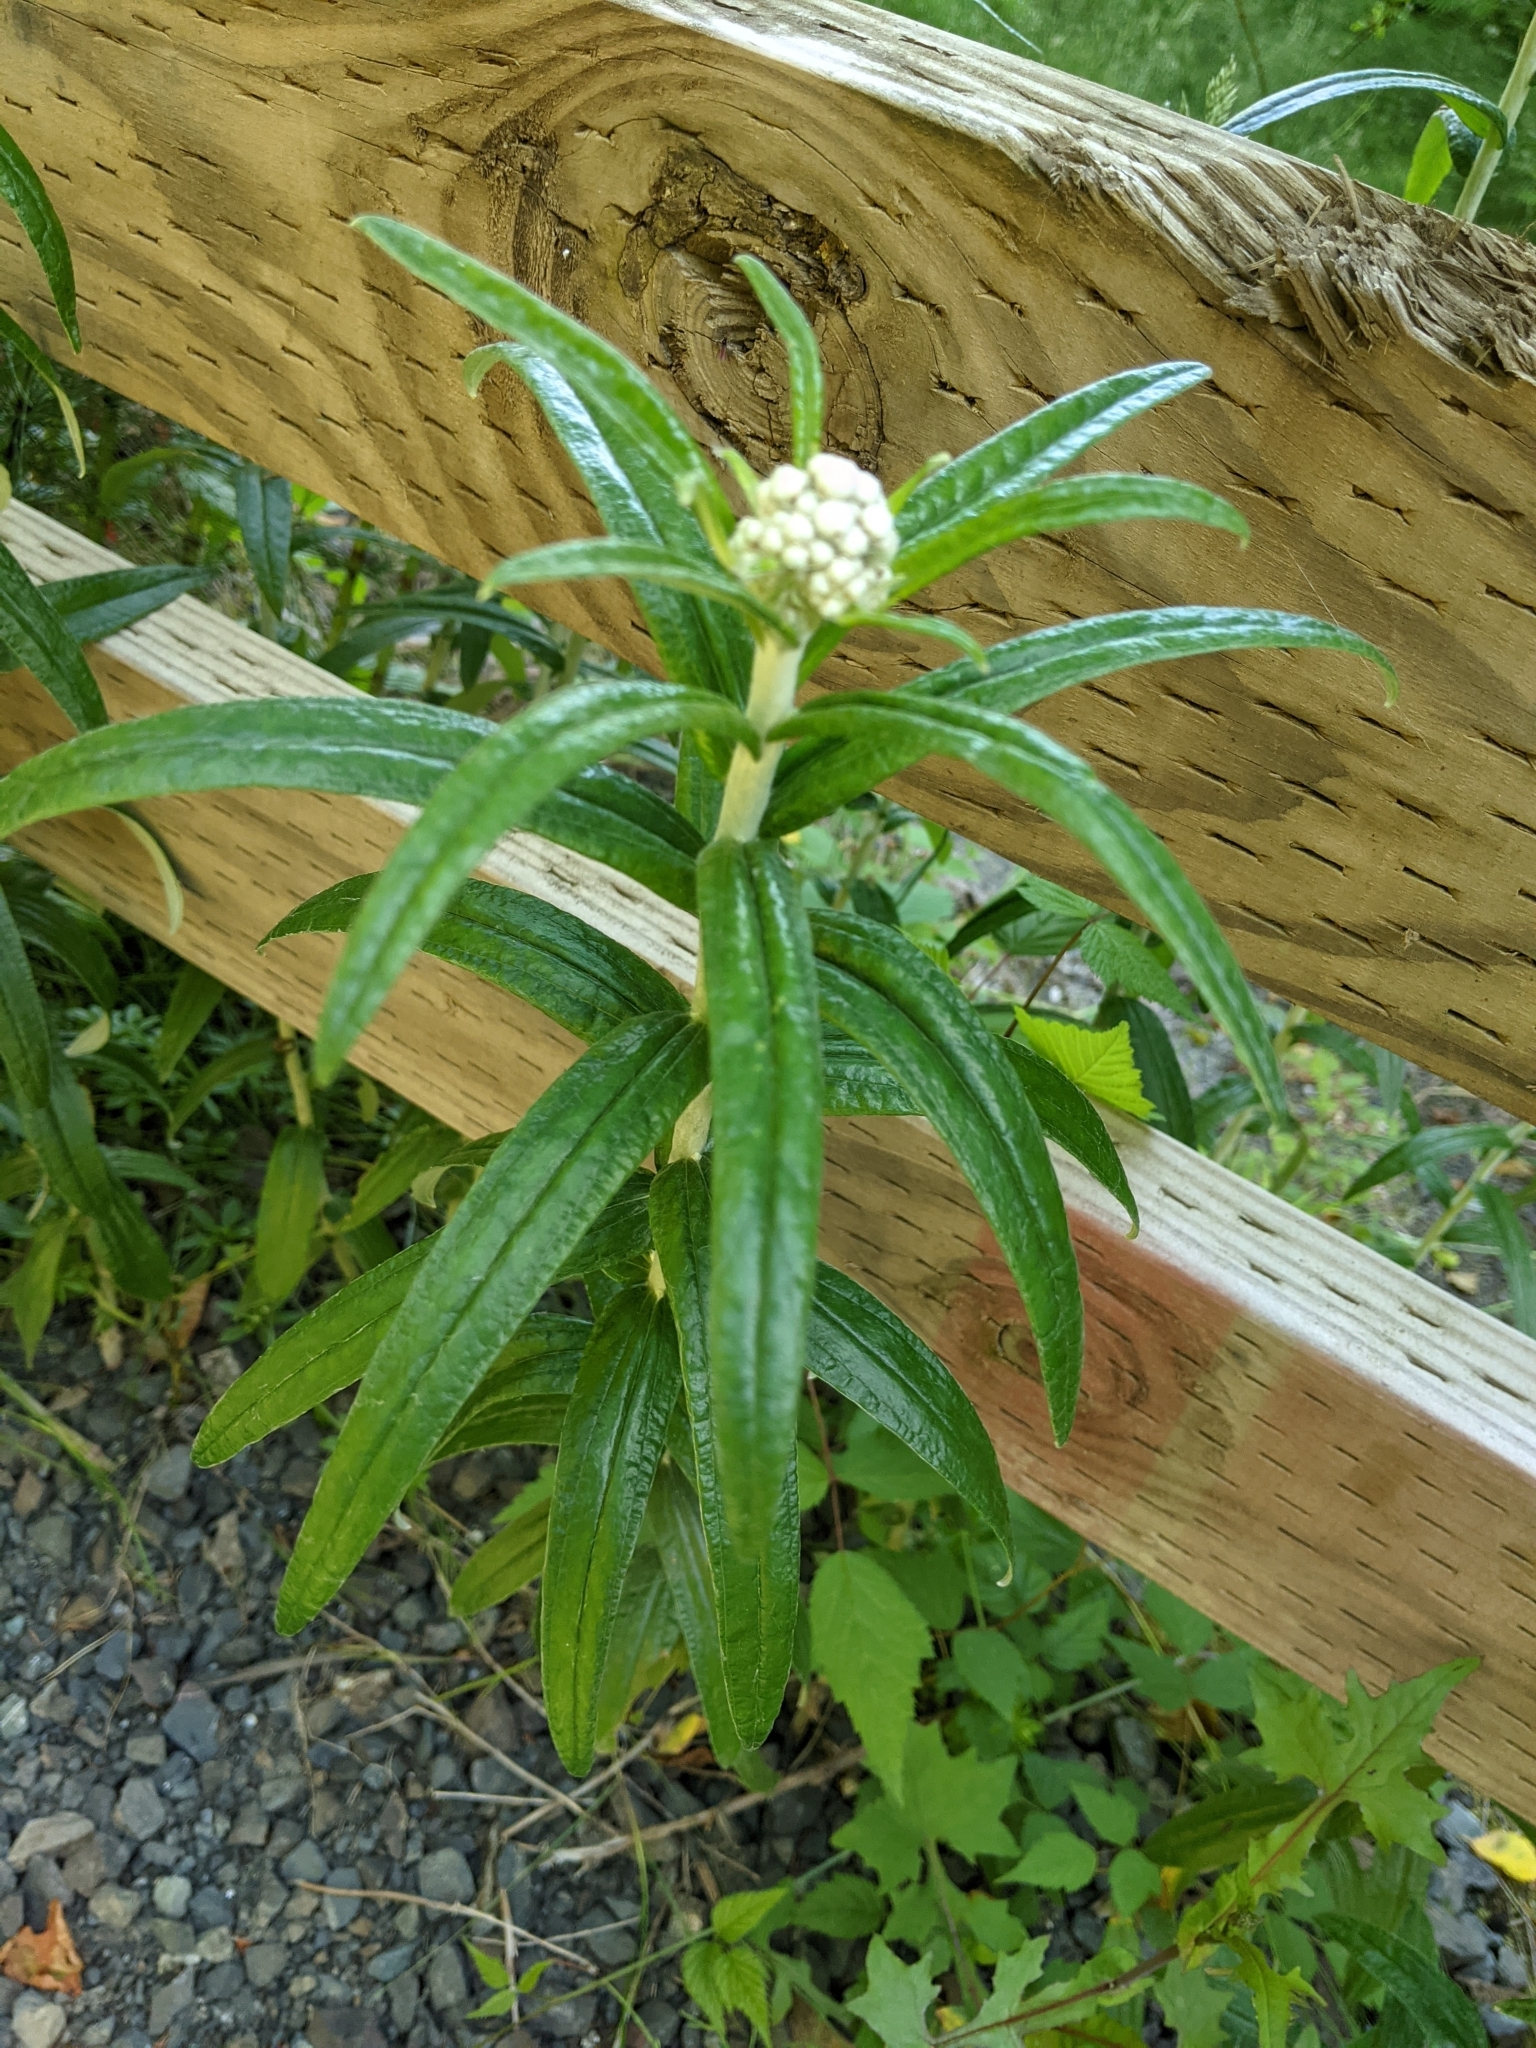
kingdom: Plantae
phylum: Tracheophyta
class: Magnoliopsida
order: Asterales
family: Asteraceae
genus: Anaphalis
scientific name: Anaphalis margaritacea
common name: Pearly everlasting
